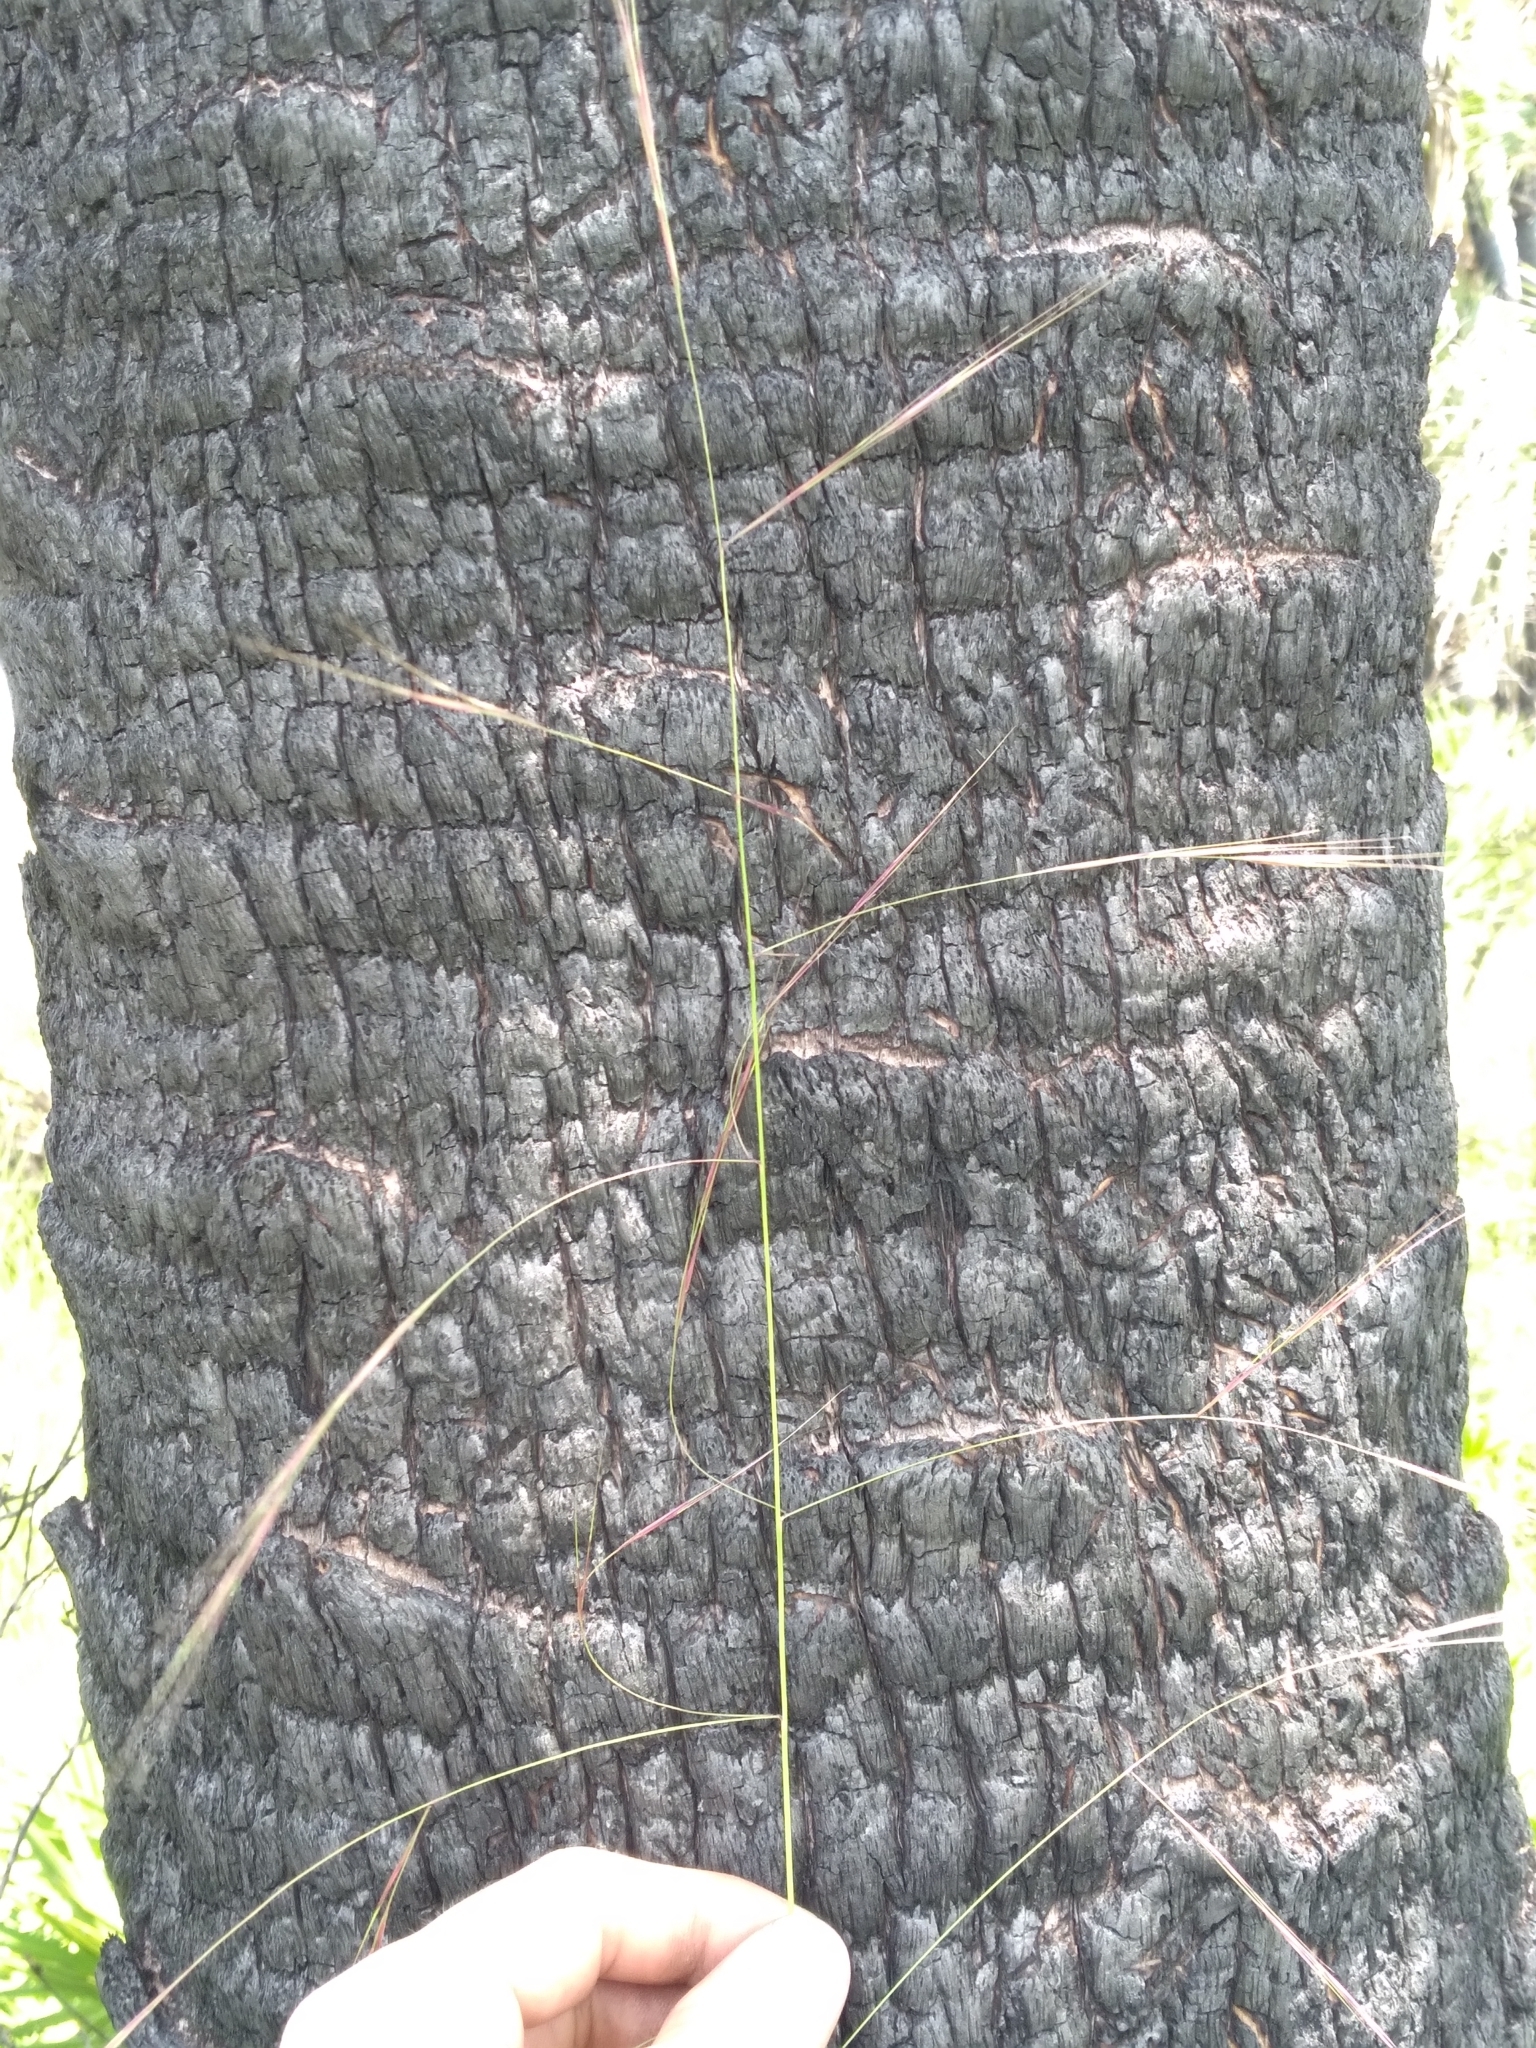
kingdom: Plantae
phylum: Tracheophyta
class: Liliopsida
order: Poales
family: Poaceae
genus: Aristida
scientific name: Aristida patula
